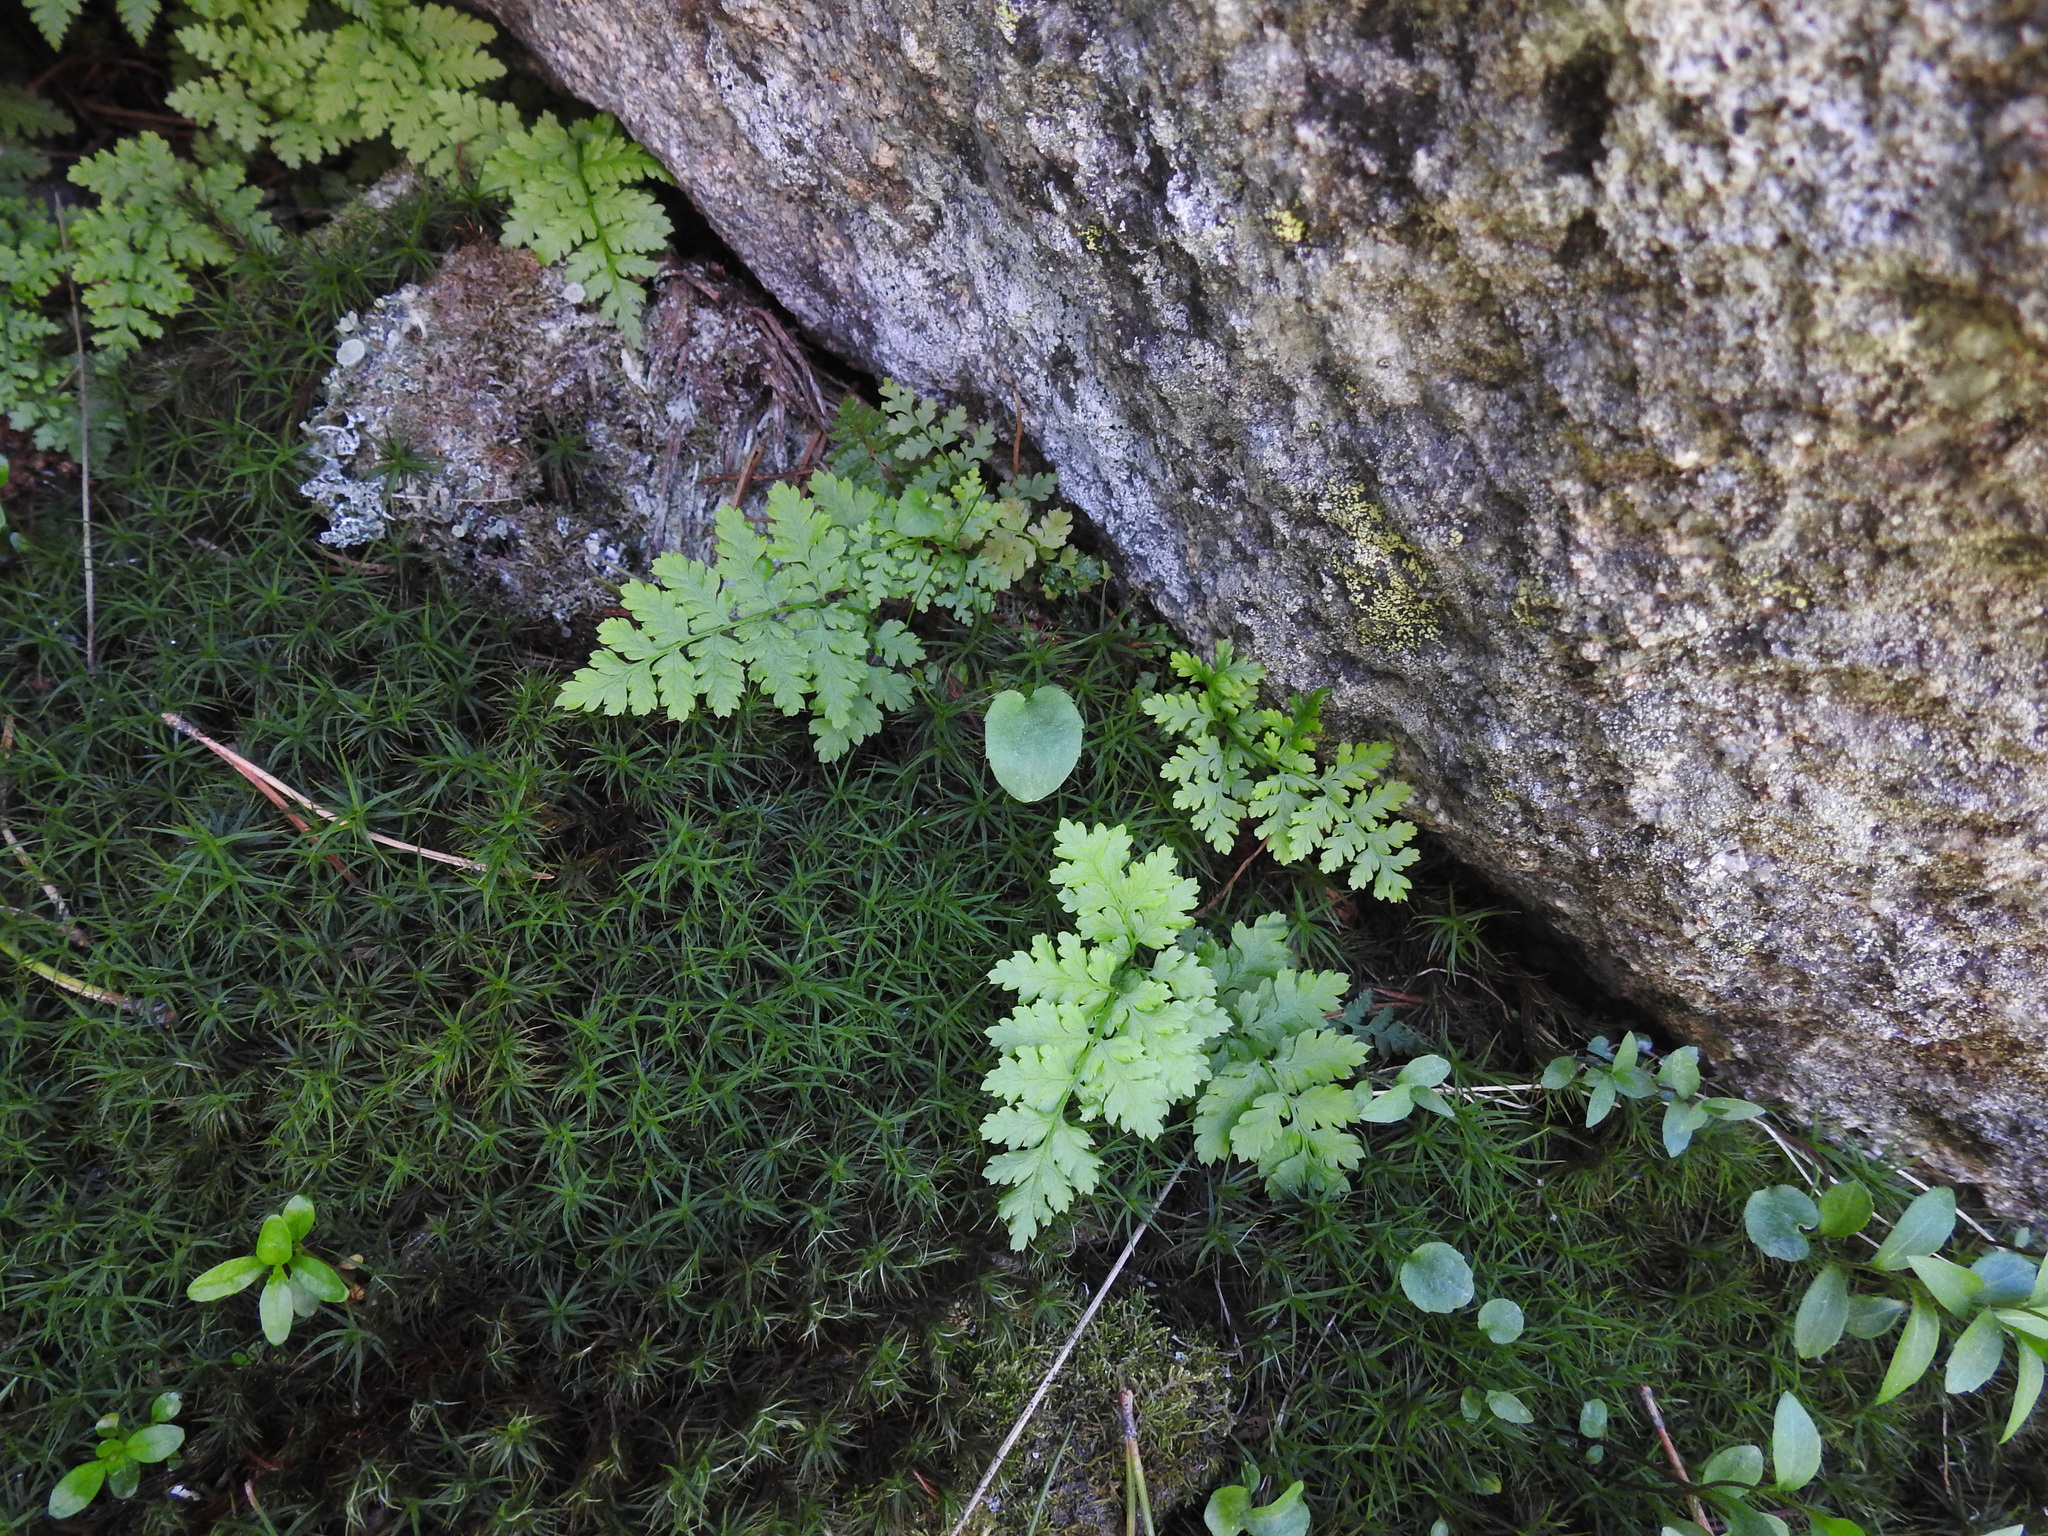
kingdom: Plantae
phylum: Bryophyta
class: Polytrichopsida
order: Polytrichales
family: Polytrichaceae
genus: Polytrichastrum
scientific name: Polytrichastrum alpinum
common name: Alpine haircap
